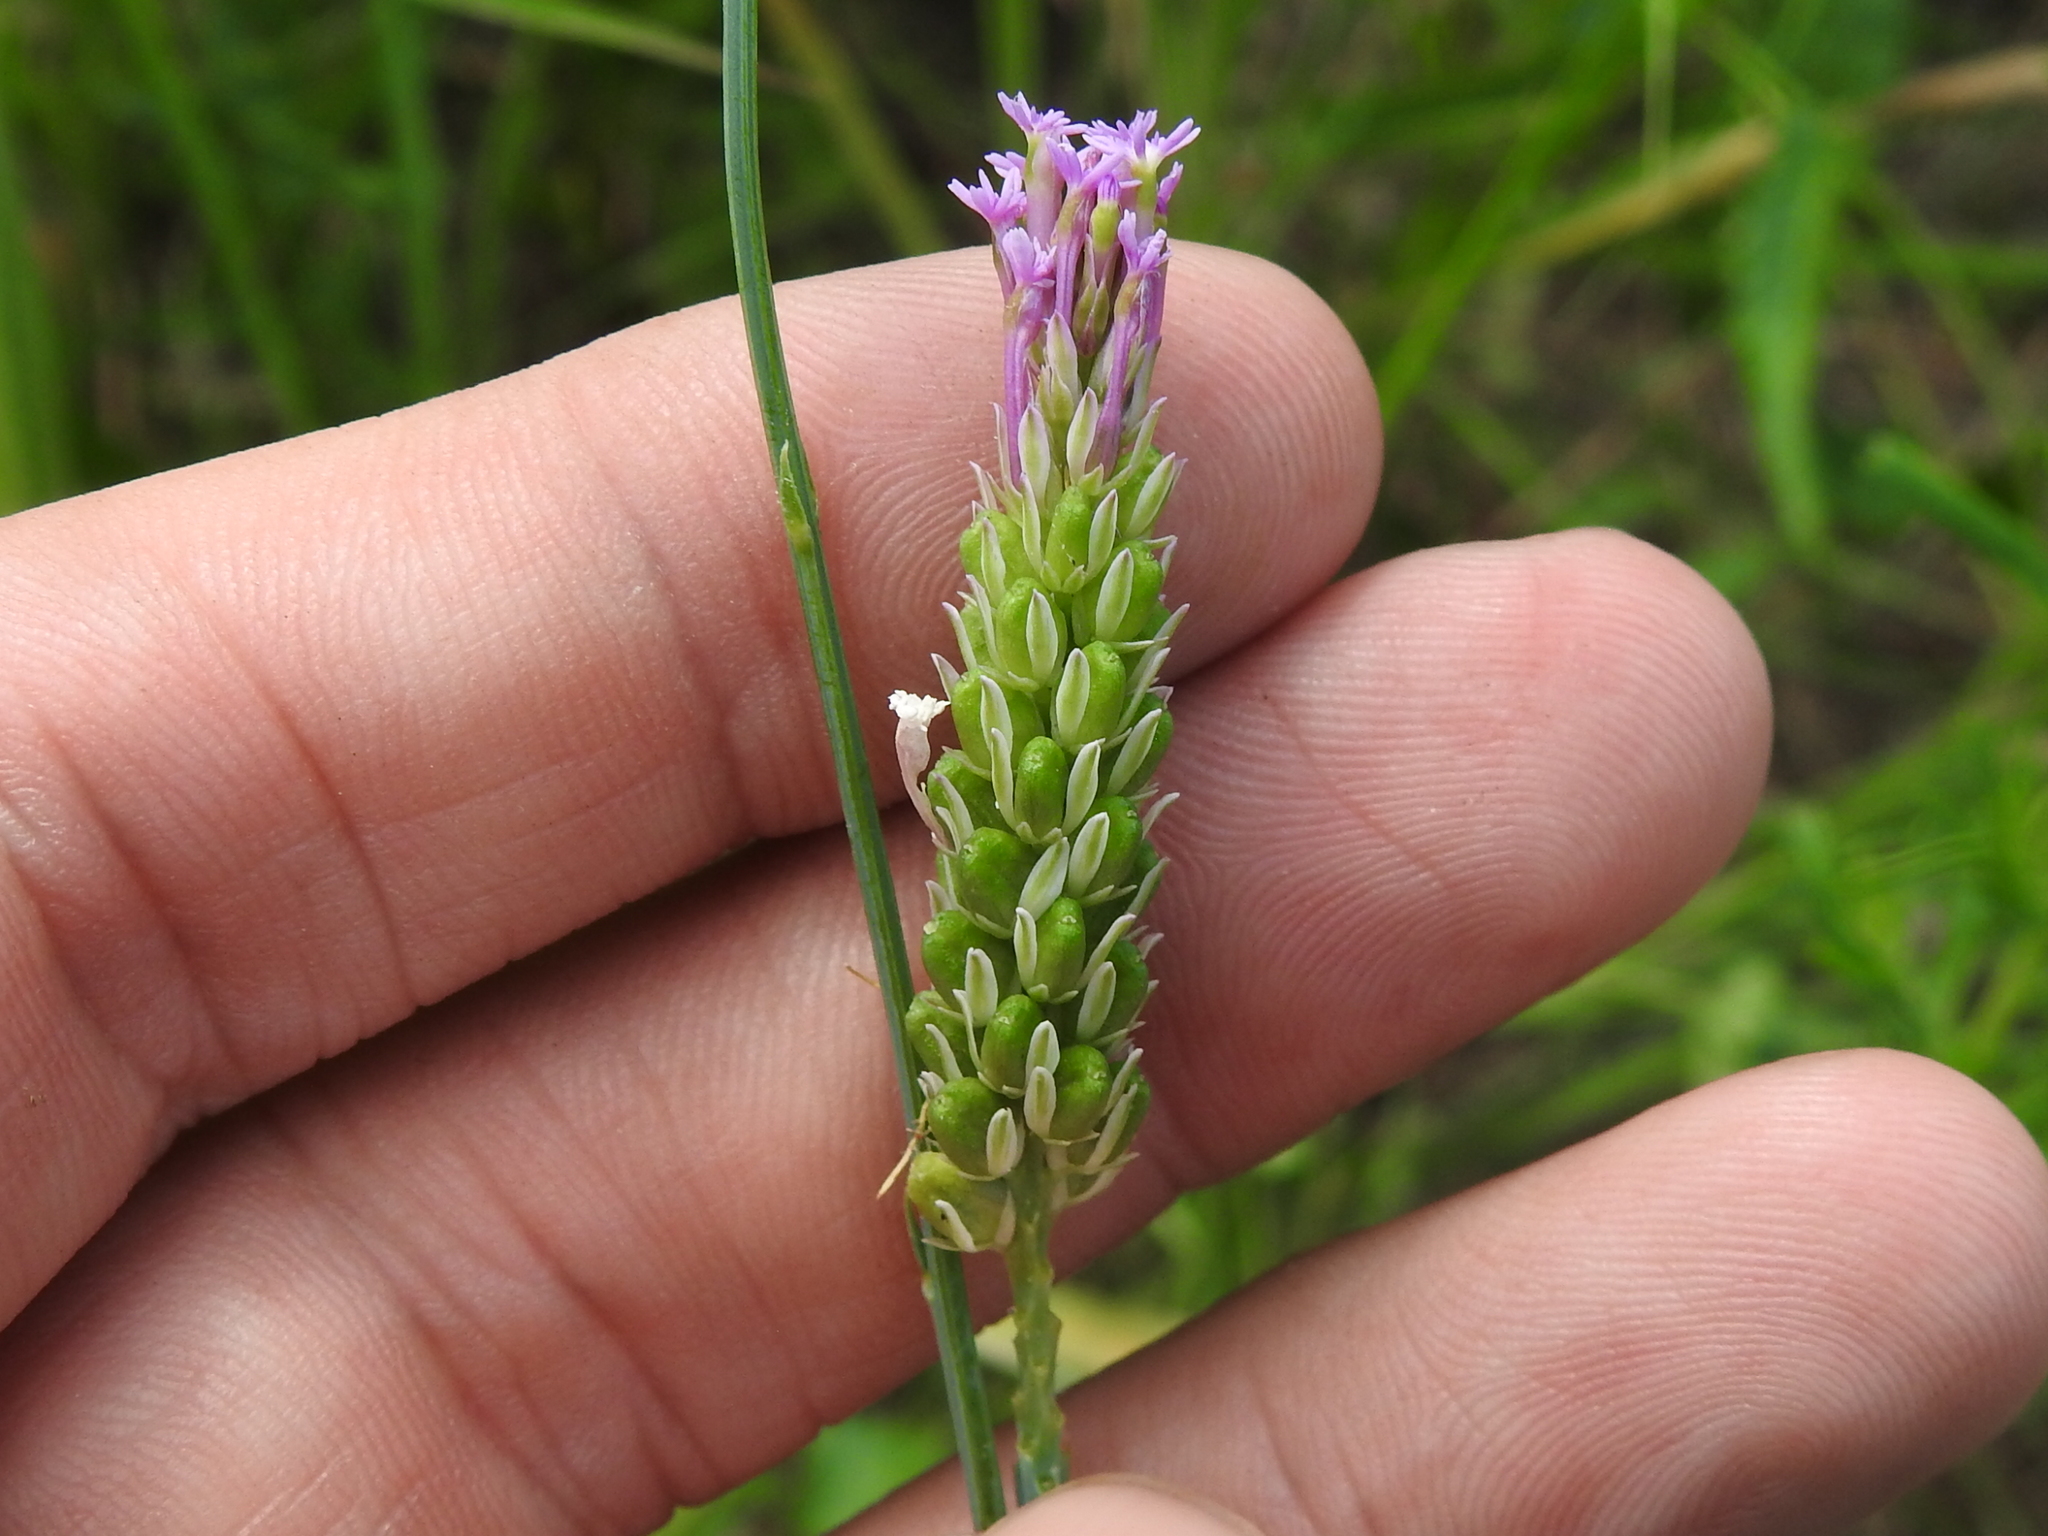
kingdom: Plantae
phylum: Tracheophyta
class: Magnoliopsida
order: Fabales
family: Polygalaceae
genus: Polygala
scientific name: Polygala incarnata
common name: Pink milkwort
